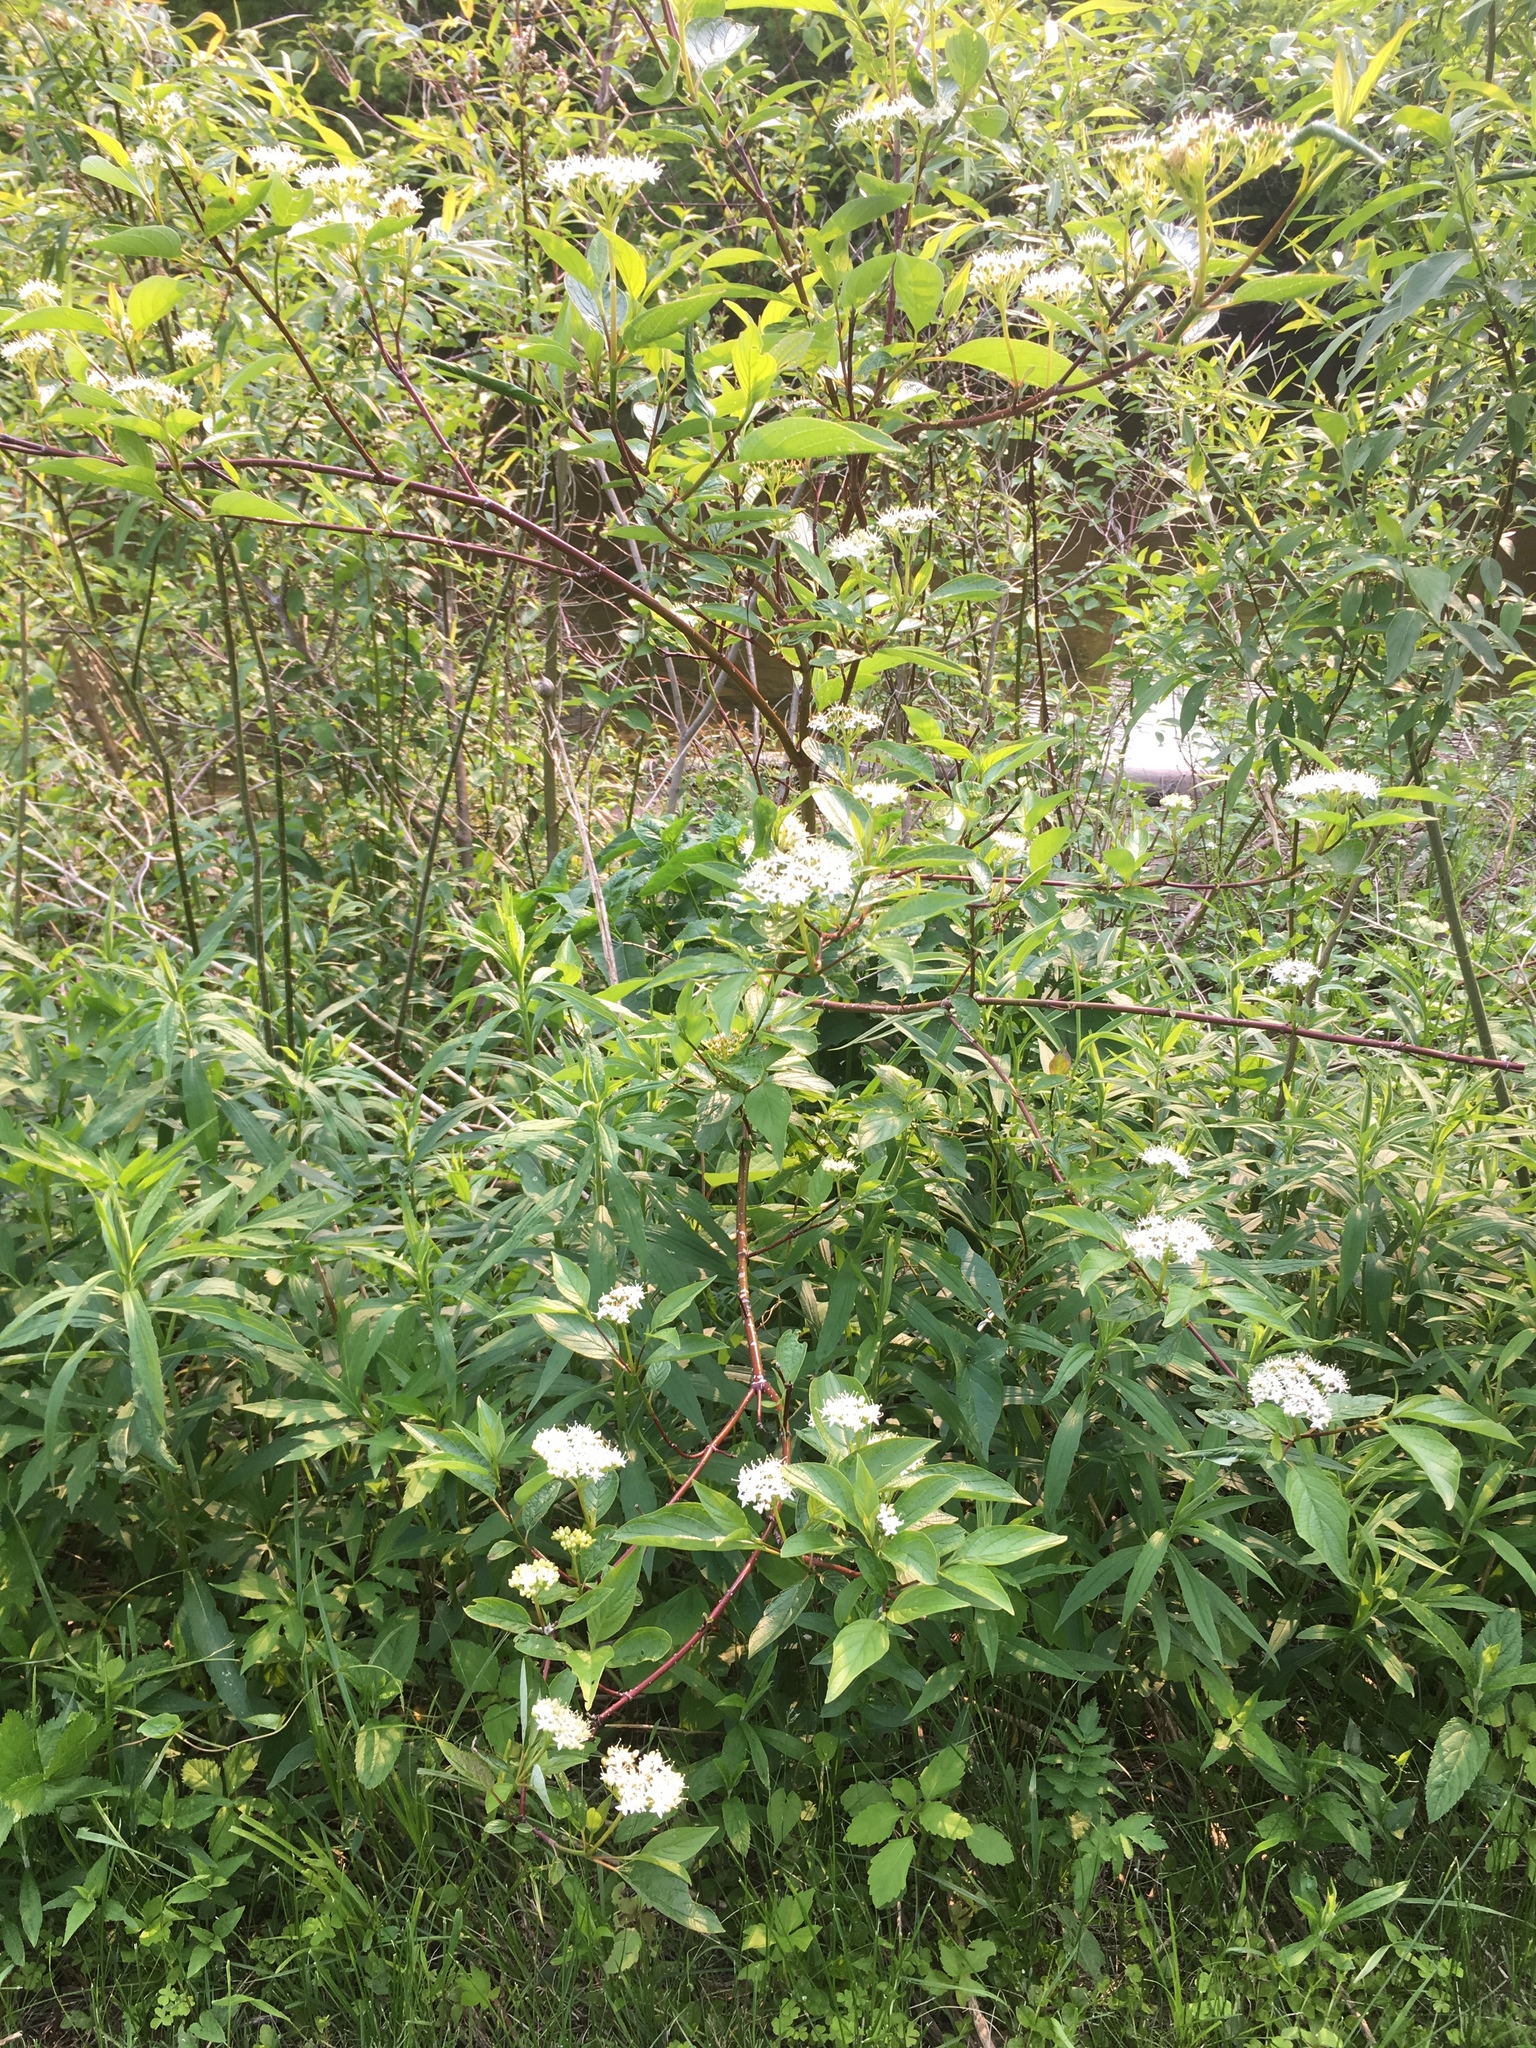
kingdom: Plantae
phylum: Tracheophyta
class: Magnoliopsida
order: Cornales
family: Cornaceae
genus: Cornus
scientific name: Cornus sericea
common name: Red-osier dogwood
